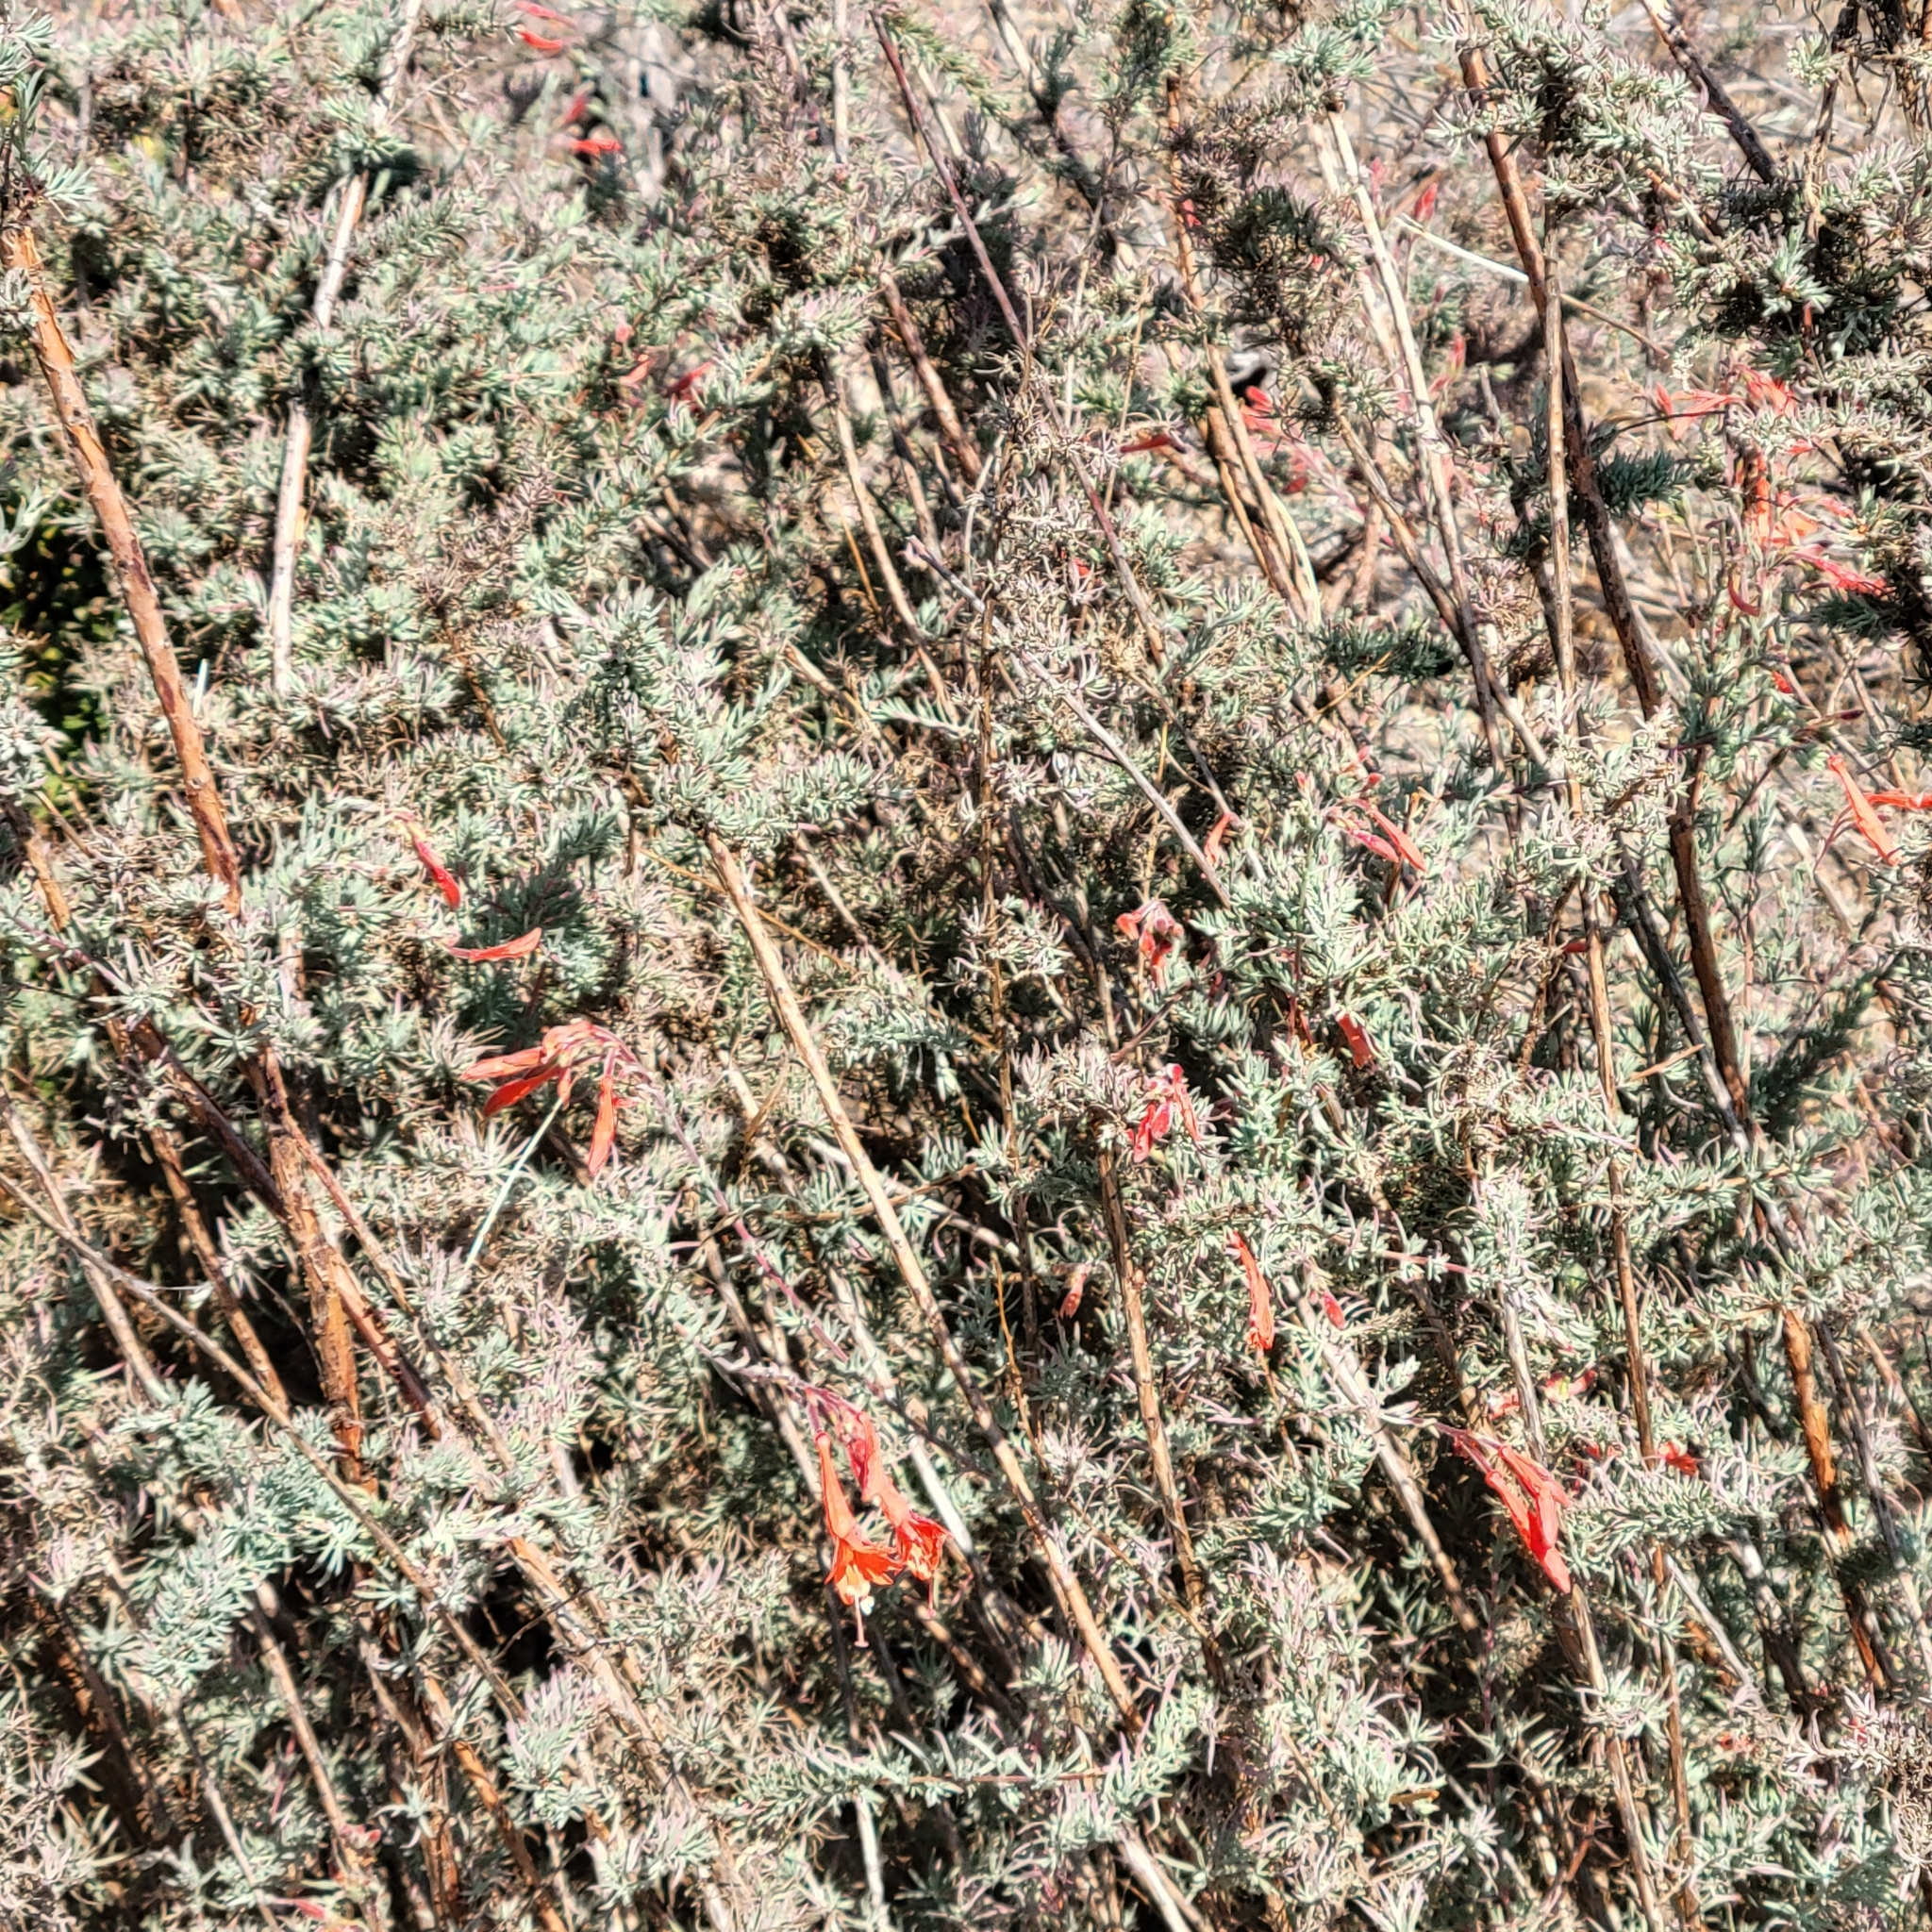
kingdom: Plantae
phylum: Tracheophyta
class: Magnoliopsida
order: Myrtales
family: Onagraceae
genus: Epilobium
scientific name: Epilobium canum
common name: California-fuchsia
